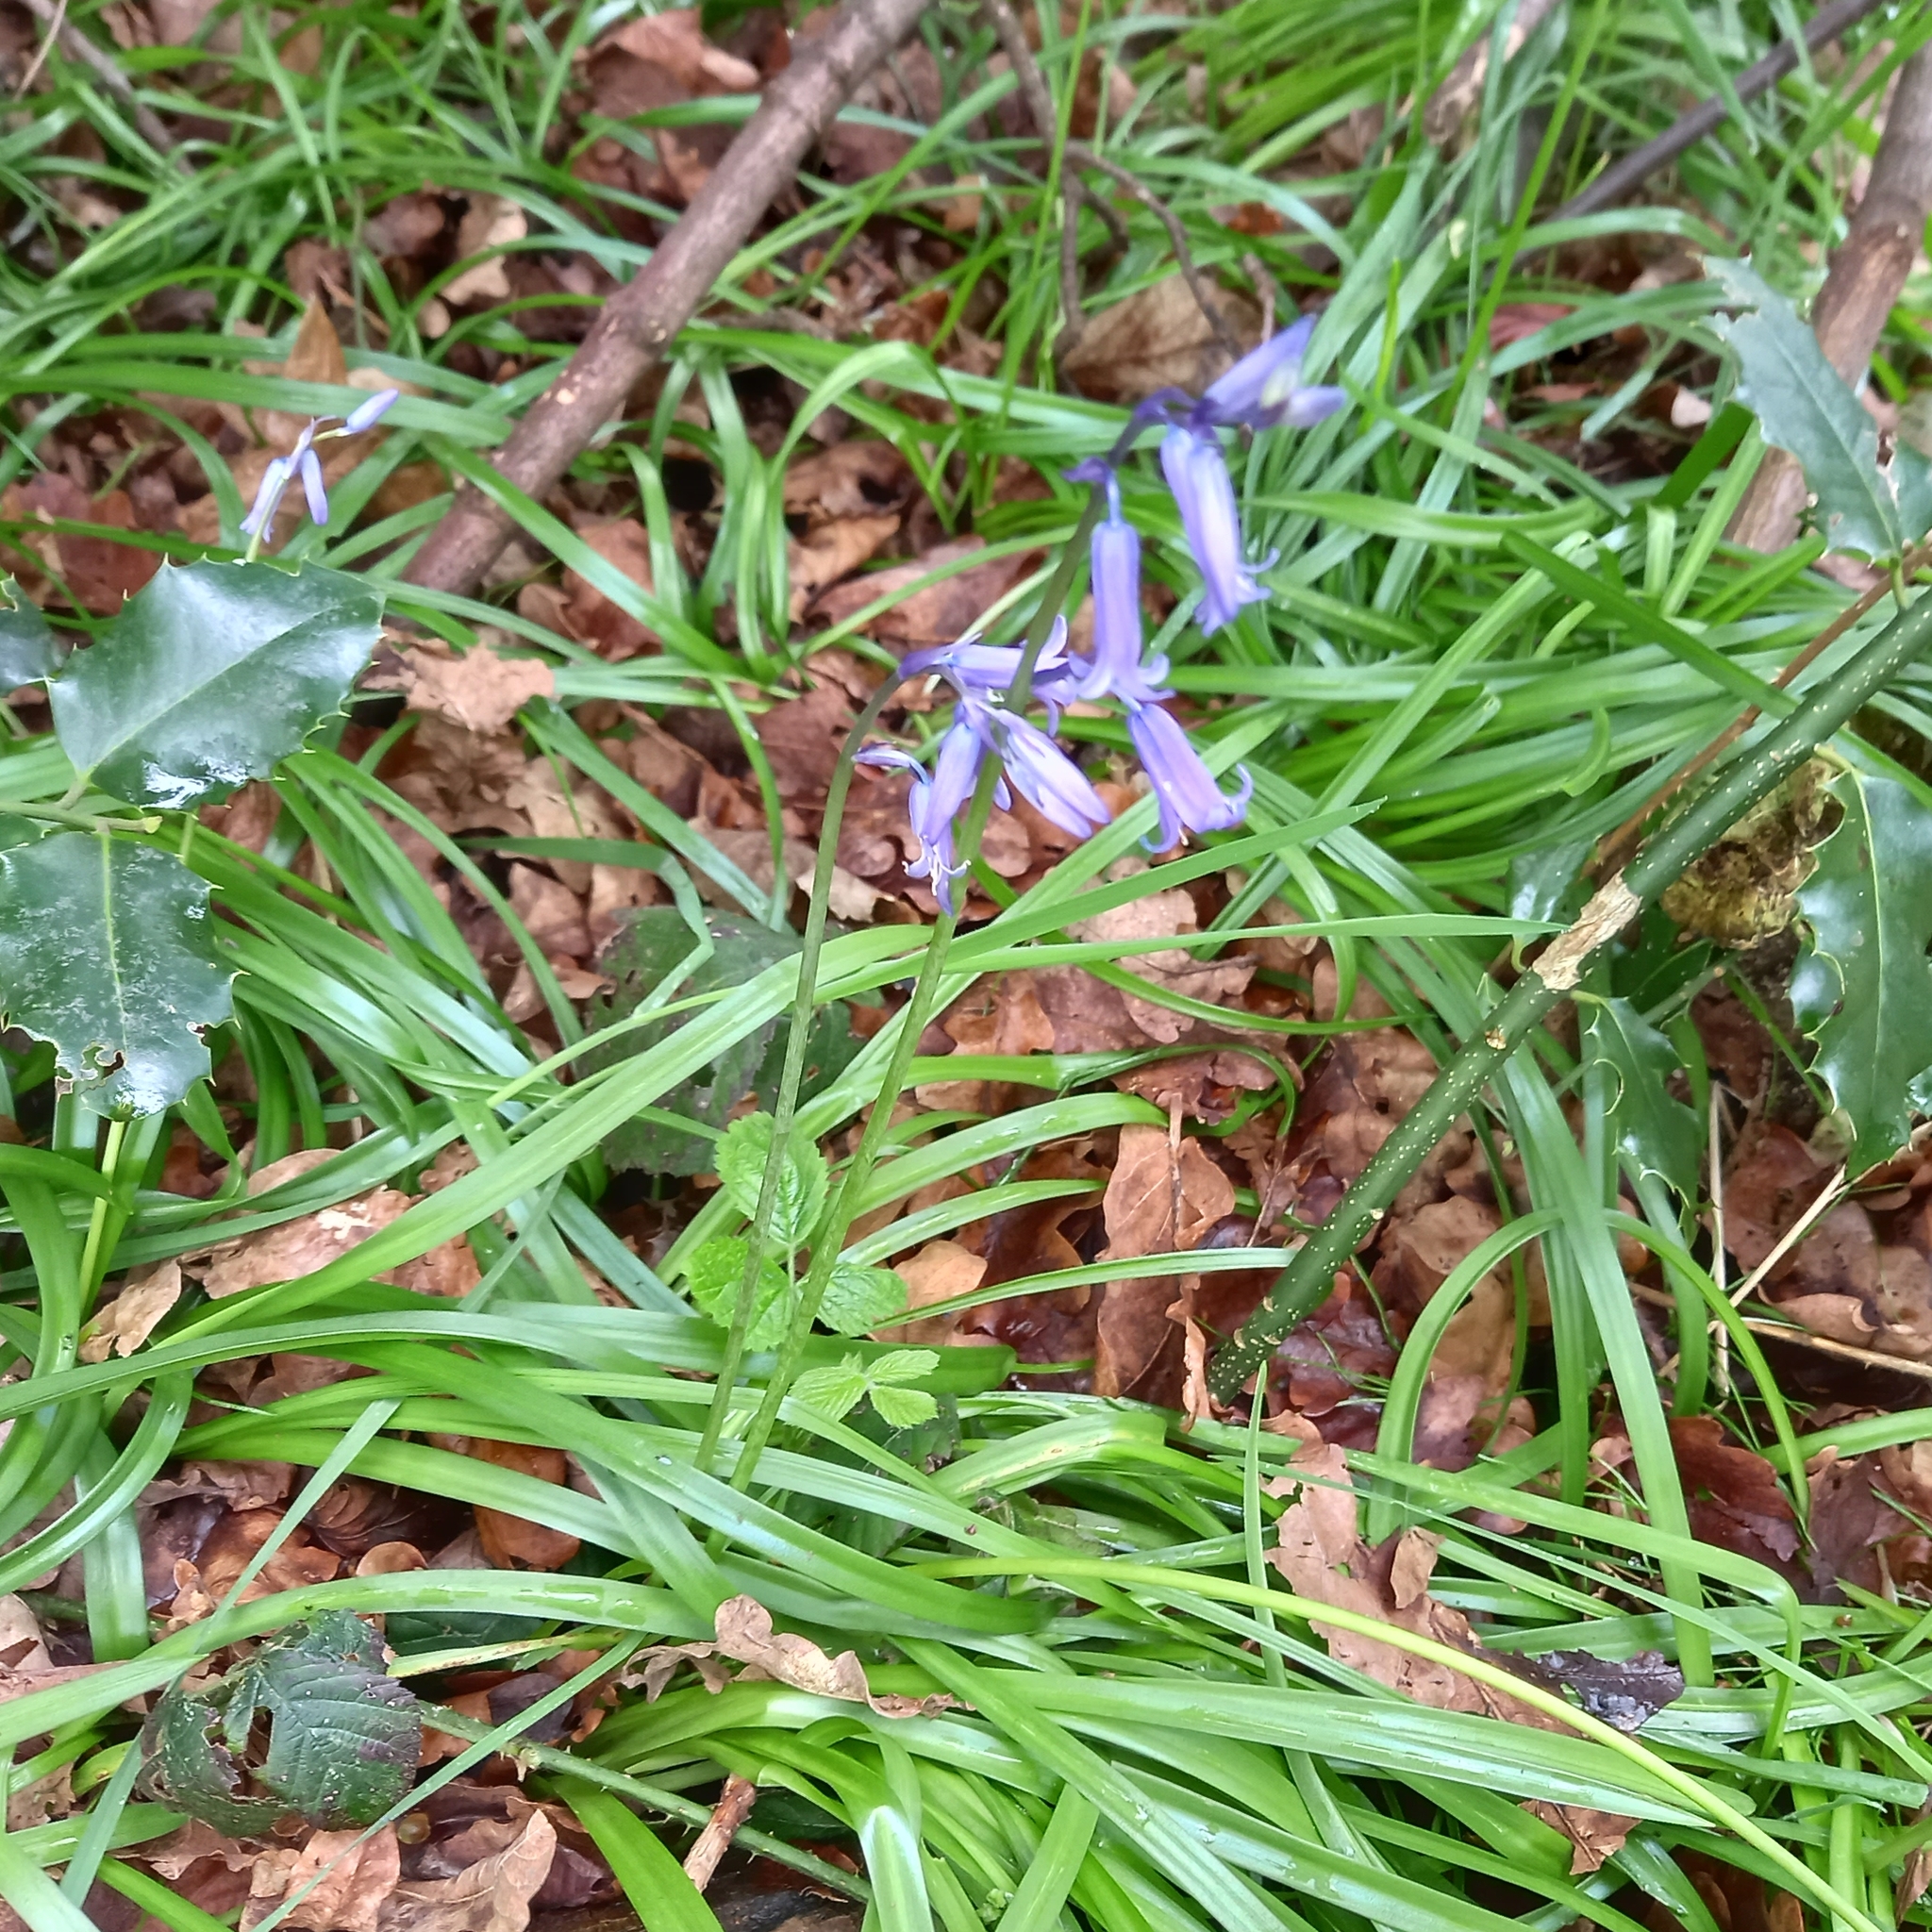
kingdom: Plantae
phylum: Tracheophyta
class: Liliopsida
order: Asparagales
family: Asparagaceae
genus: Hyacinthoides
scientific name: Hyacinthoides non-scripta
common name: Bluebell
